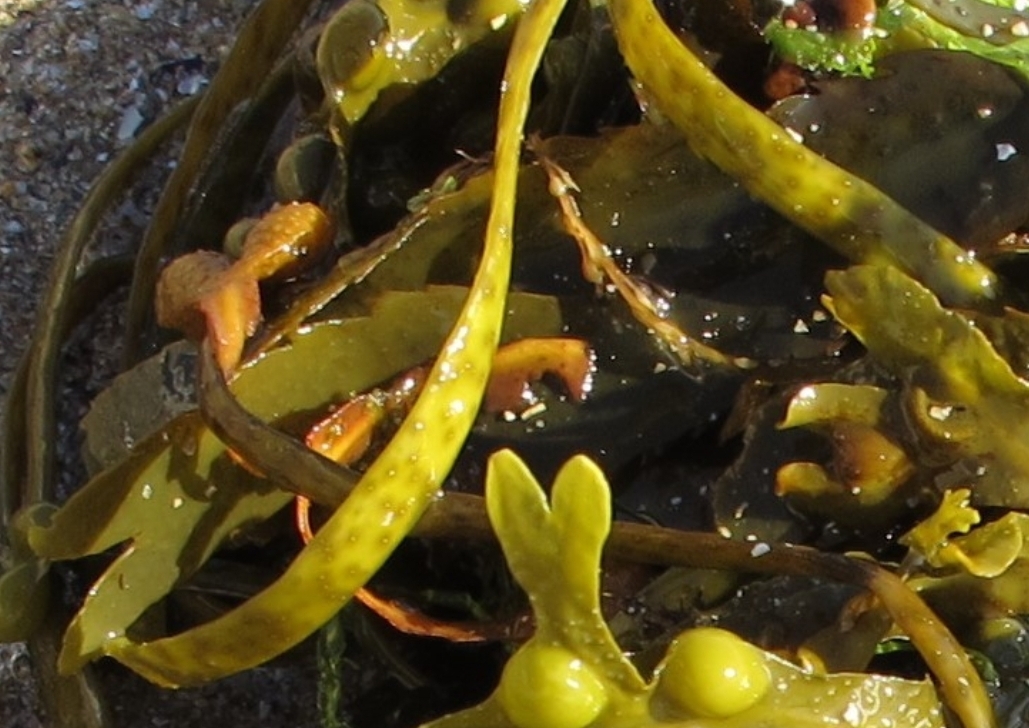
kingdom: Chromista
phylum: Ochrophyta
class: Phaeophyceae
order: Fucales
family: Himanthaliaceae
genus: Himanthalia
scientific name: Himanthalia elongata
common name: Sea-thong
